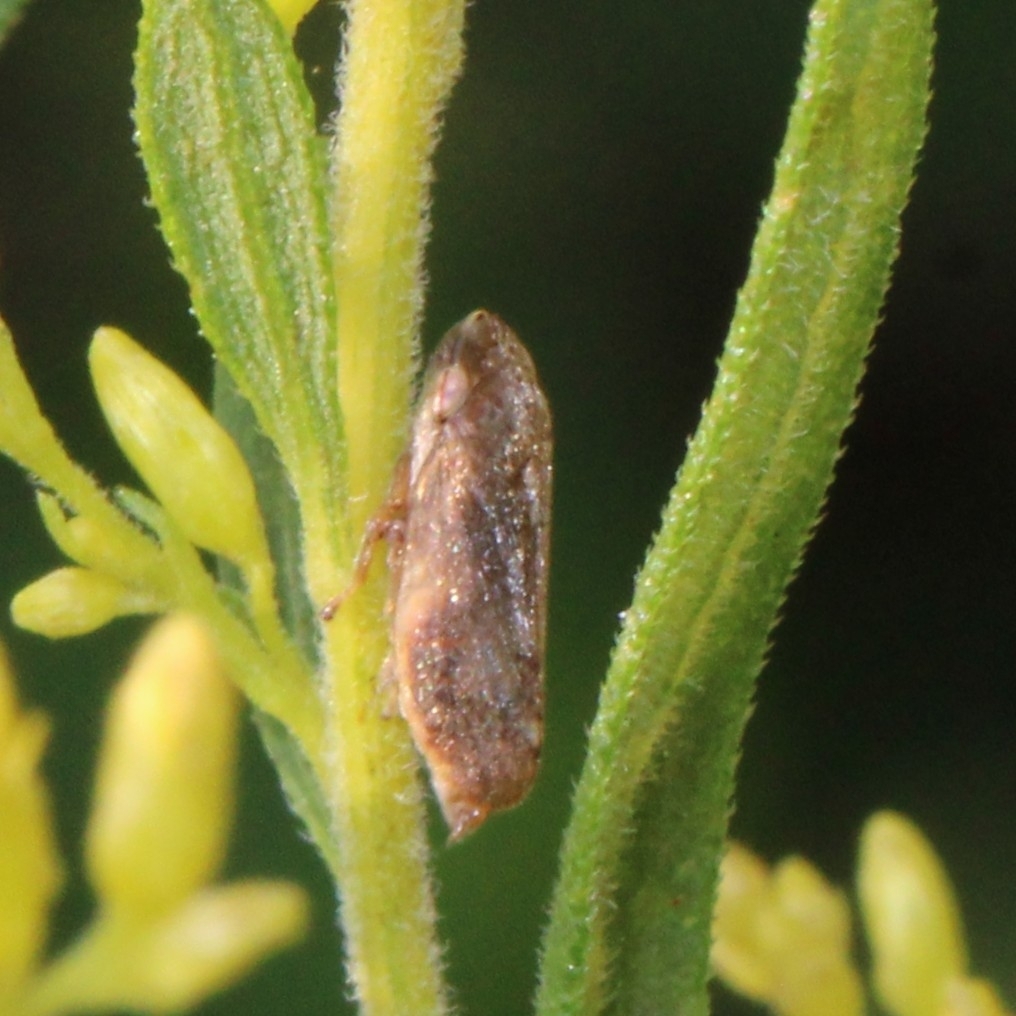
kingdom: Animalia
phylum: Arthropoda
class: Insecta
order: Hemiptera
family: Aphrophoridae
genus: Philaenus
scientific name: Philaenus spumarius
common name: Meadow spittlebug
